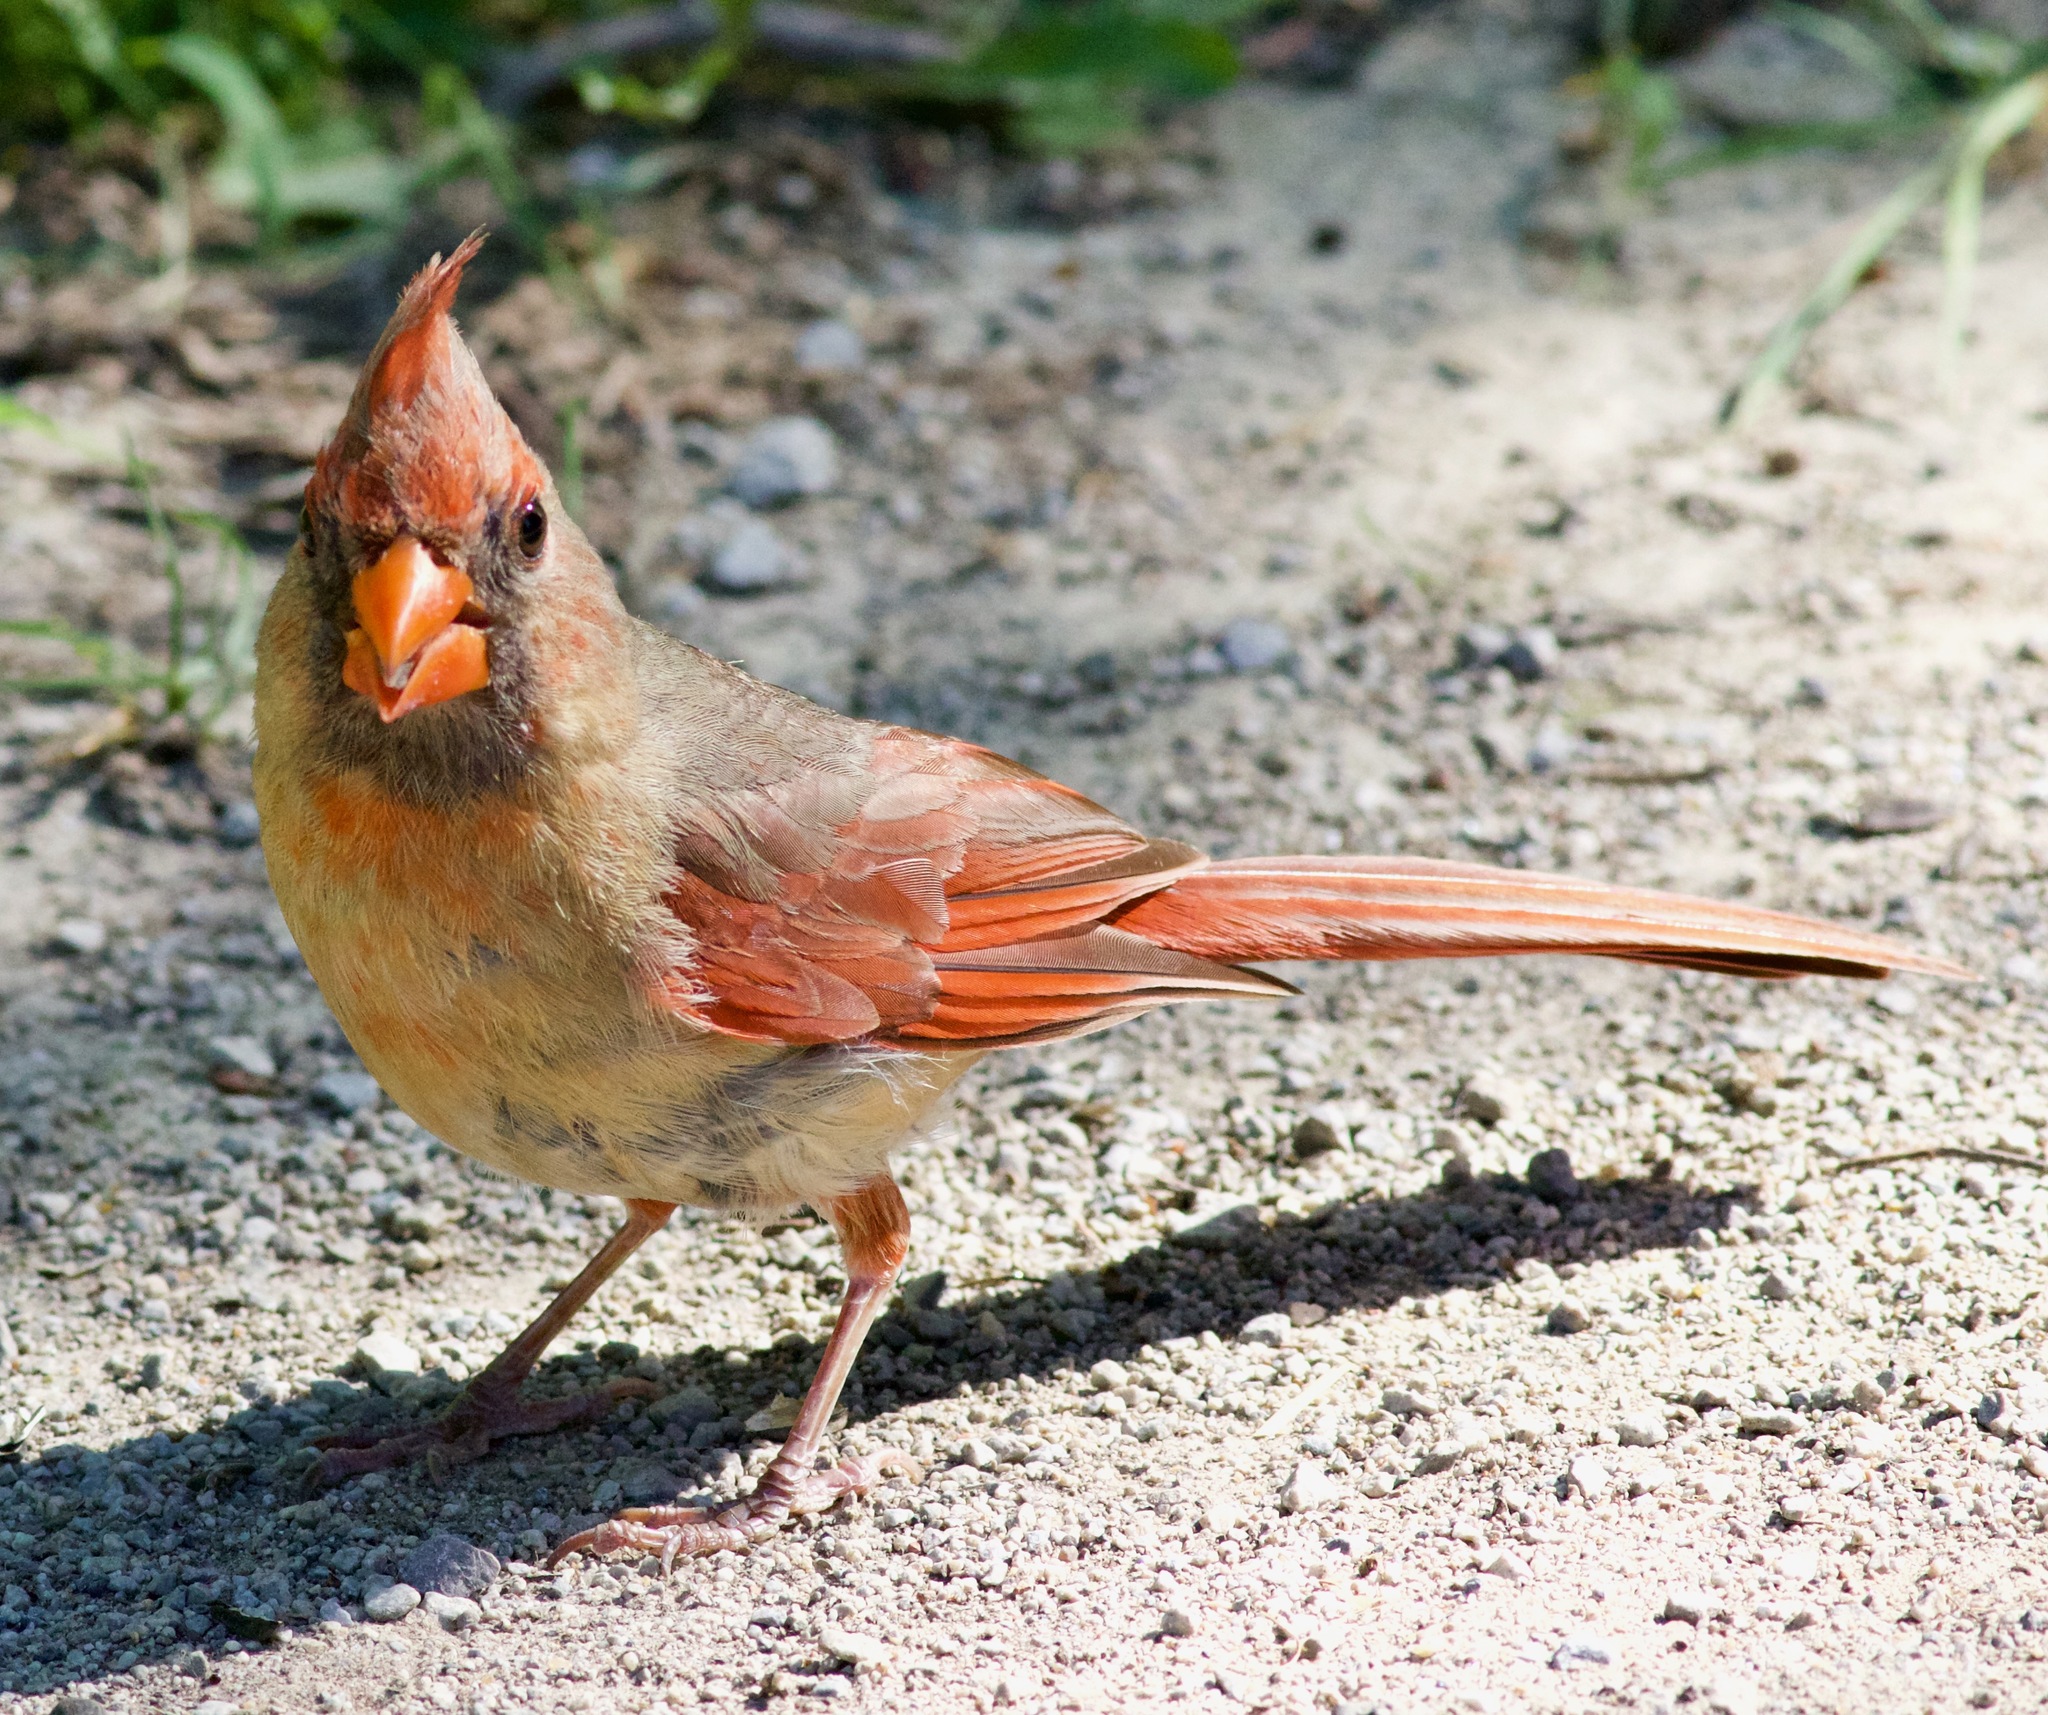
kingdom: Animalia
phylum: Chordata
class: Aves
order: Passeriformes
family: Cardinalidae
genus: Cardinalis
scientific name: Cardinalis cardinalis
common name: Northern cardinal
